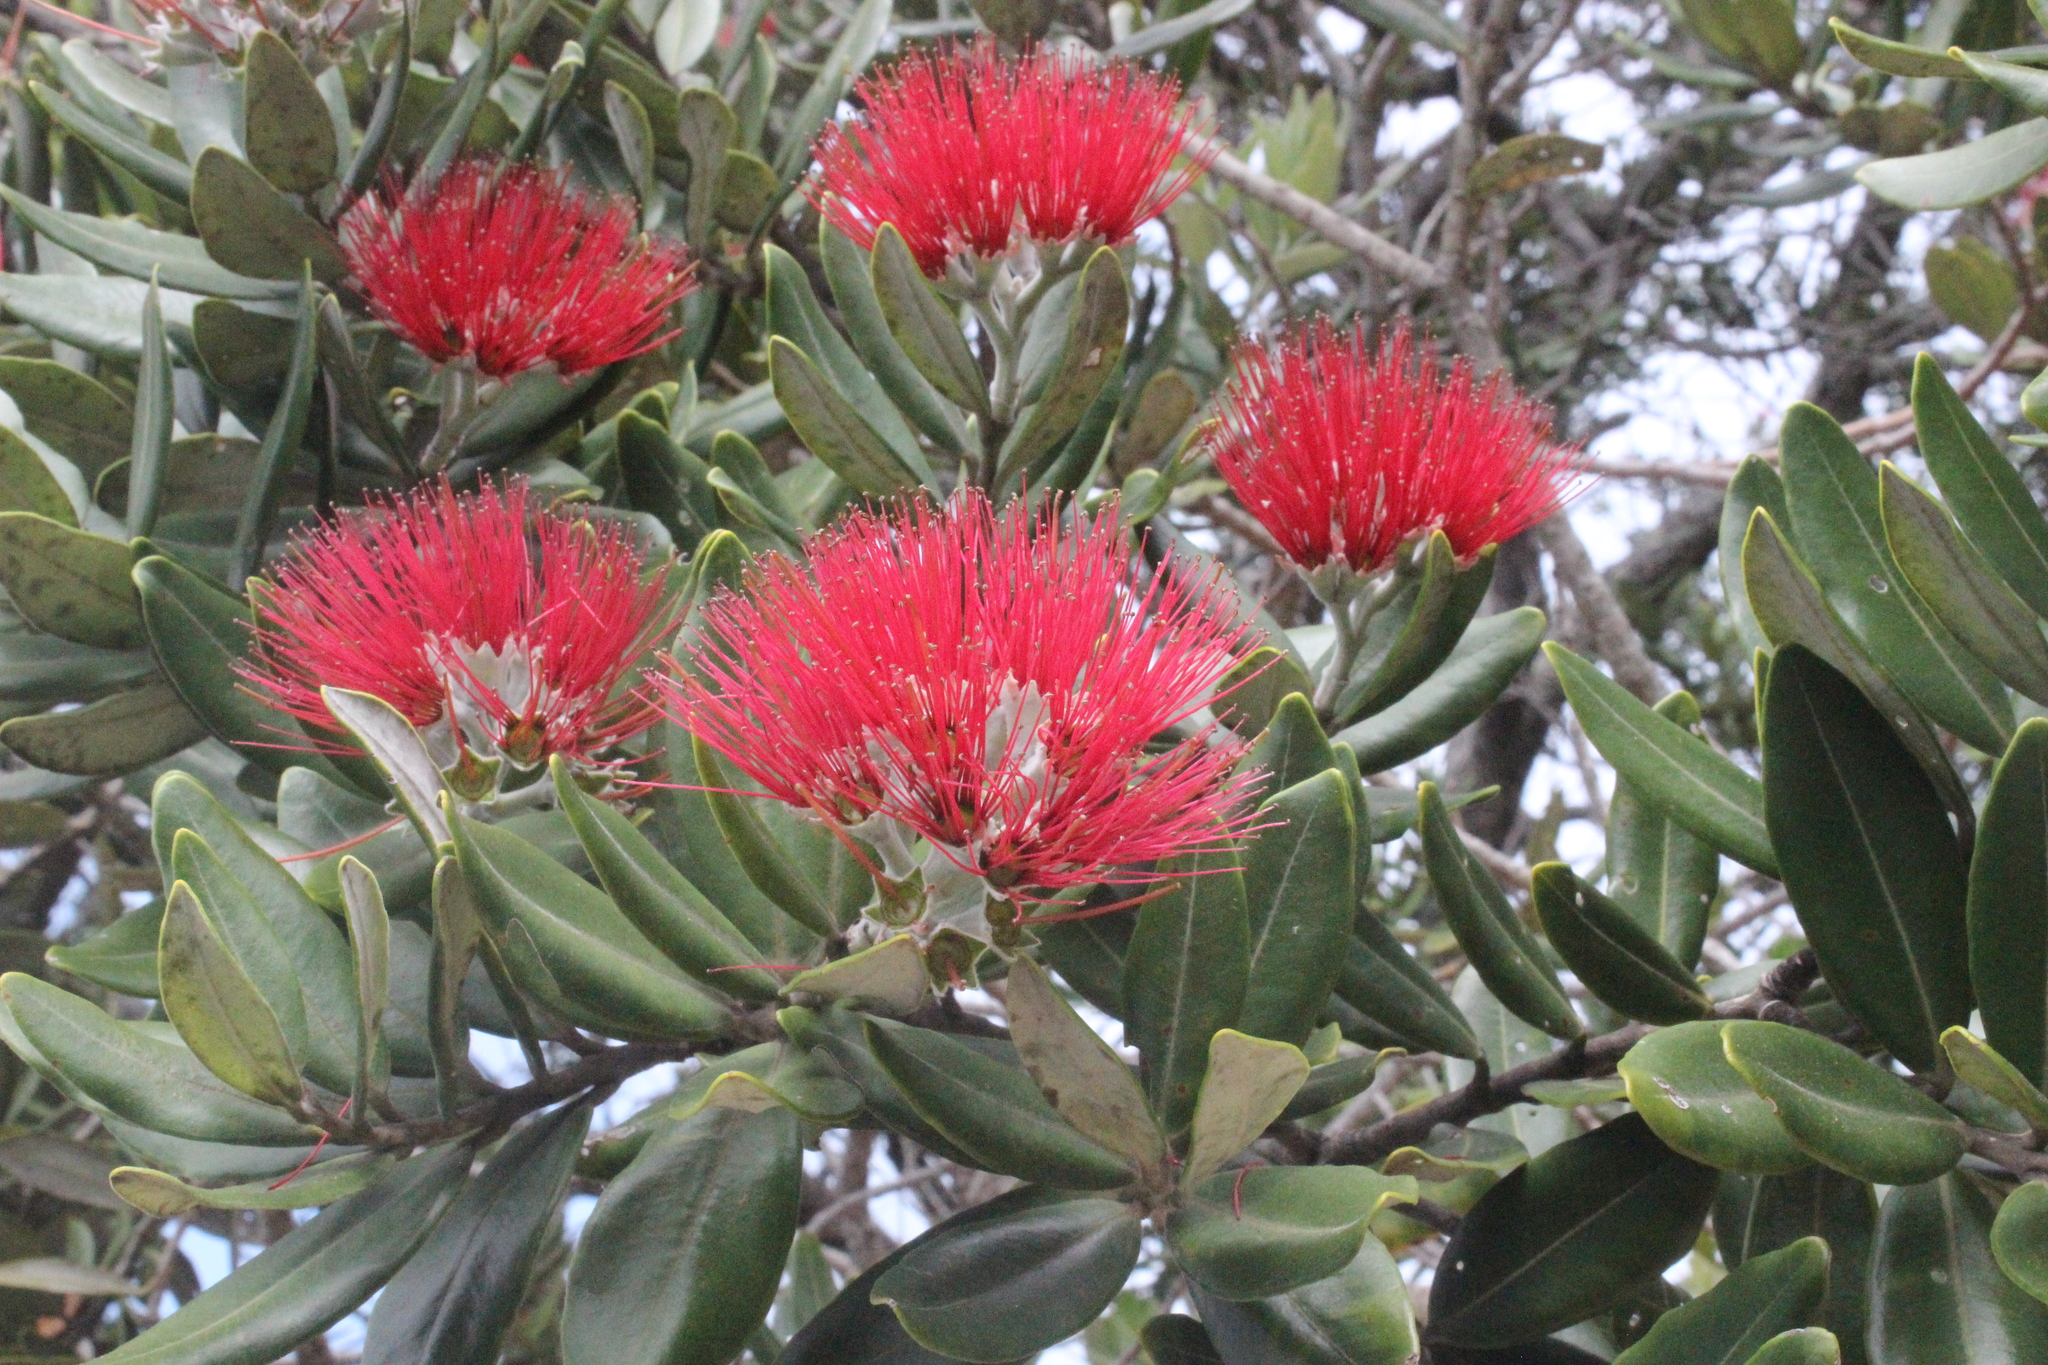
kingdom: Plantae
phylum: Tracheophyta
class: Magnoliopsida
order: Myrtales
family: Myrtaceae
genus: Metrosideros
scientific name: Metrosideros excelsa
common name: New zealand christmastree
